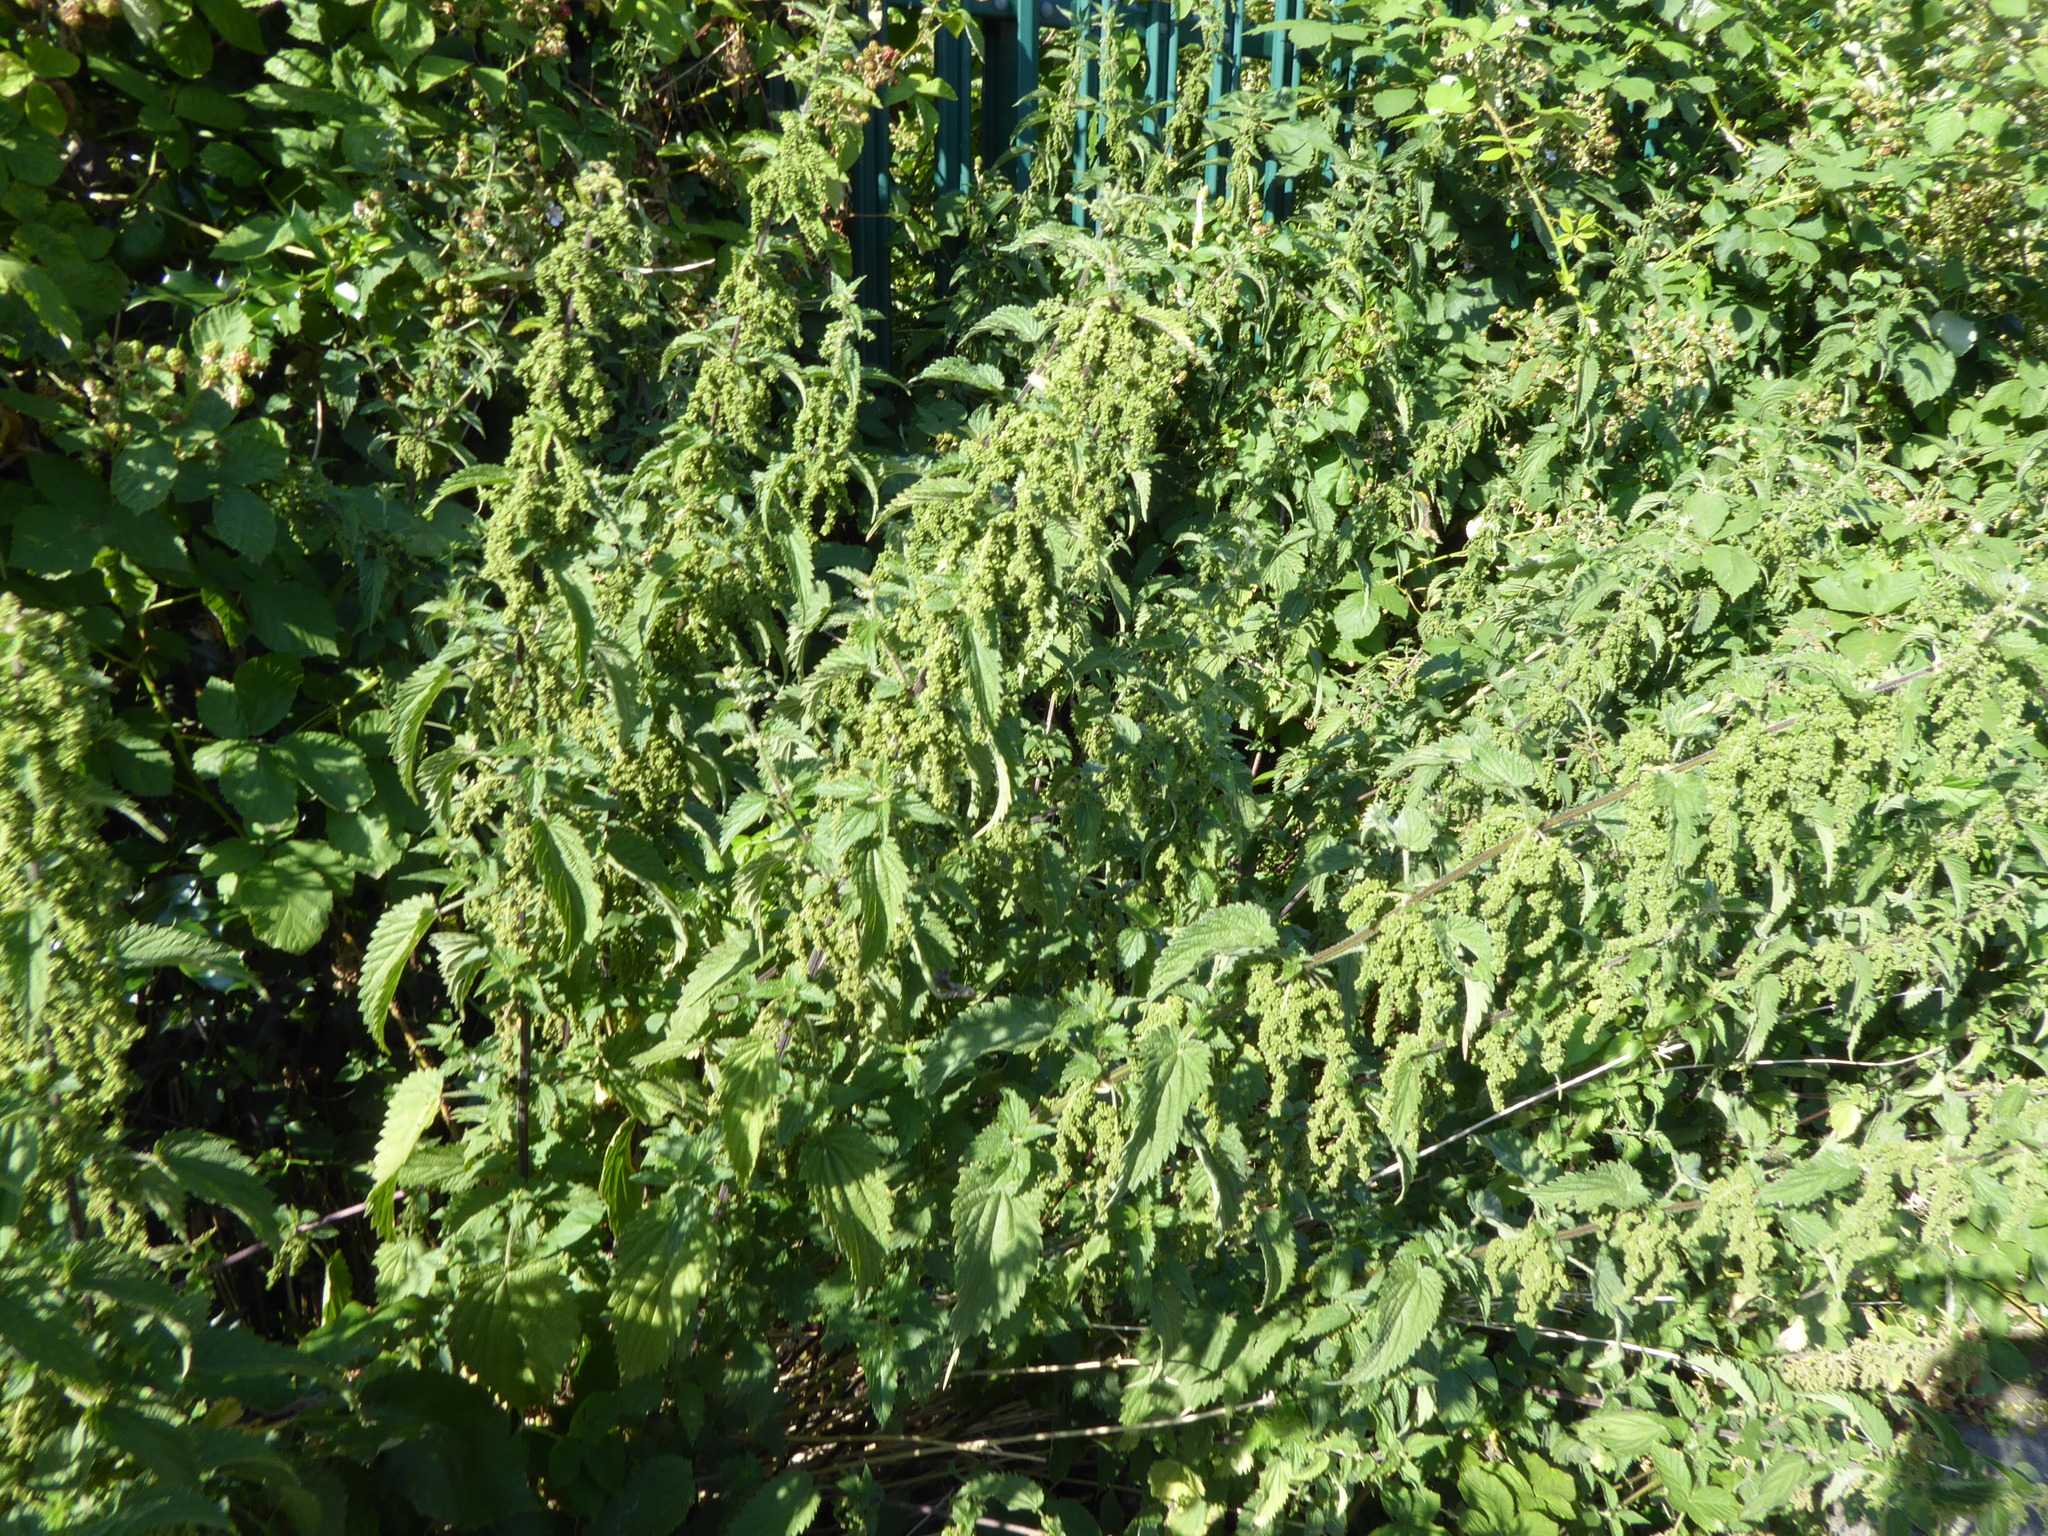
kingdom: Plantae
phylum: Tracheophyta
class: Magnoliopsida
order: Rosales
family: Urticaceae
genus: Urtica
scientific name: Urtica dioica
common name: Common nettle
